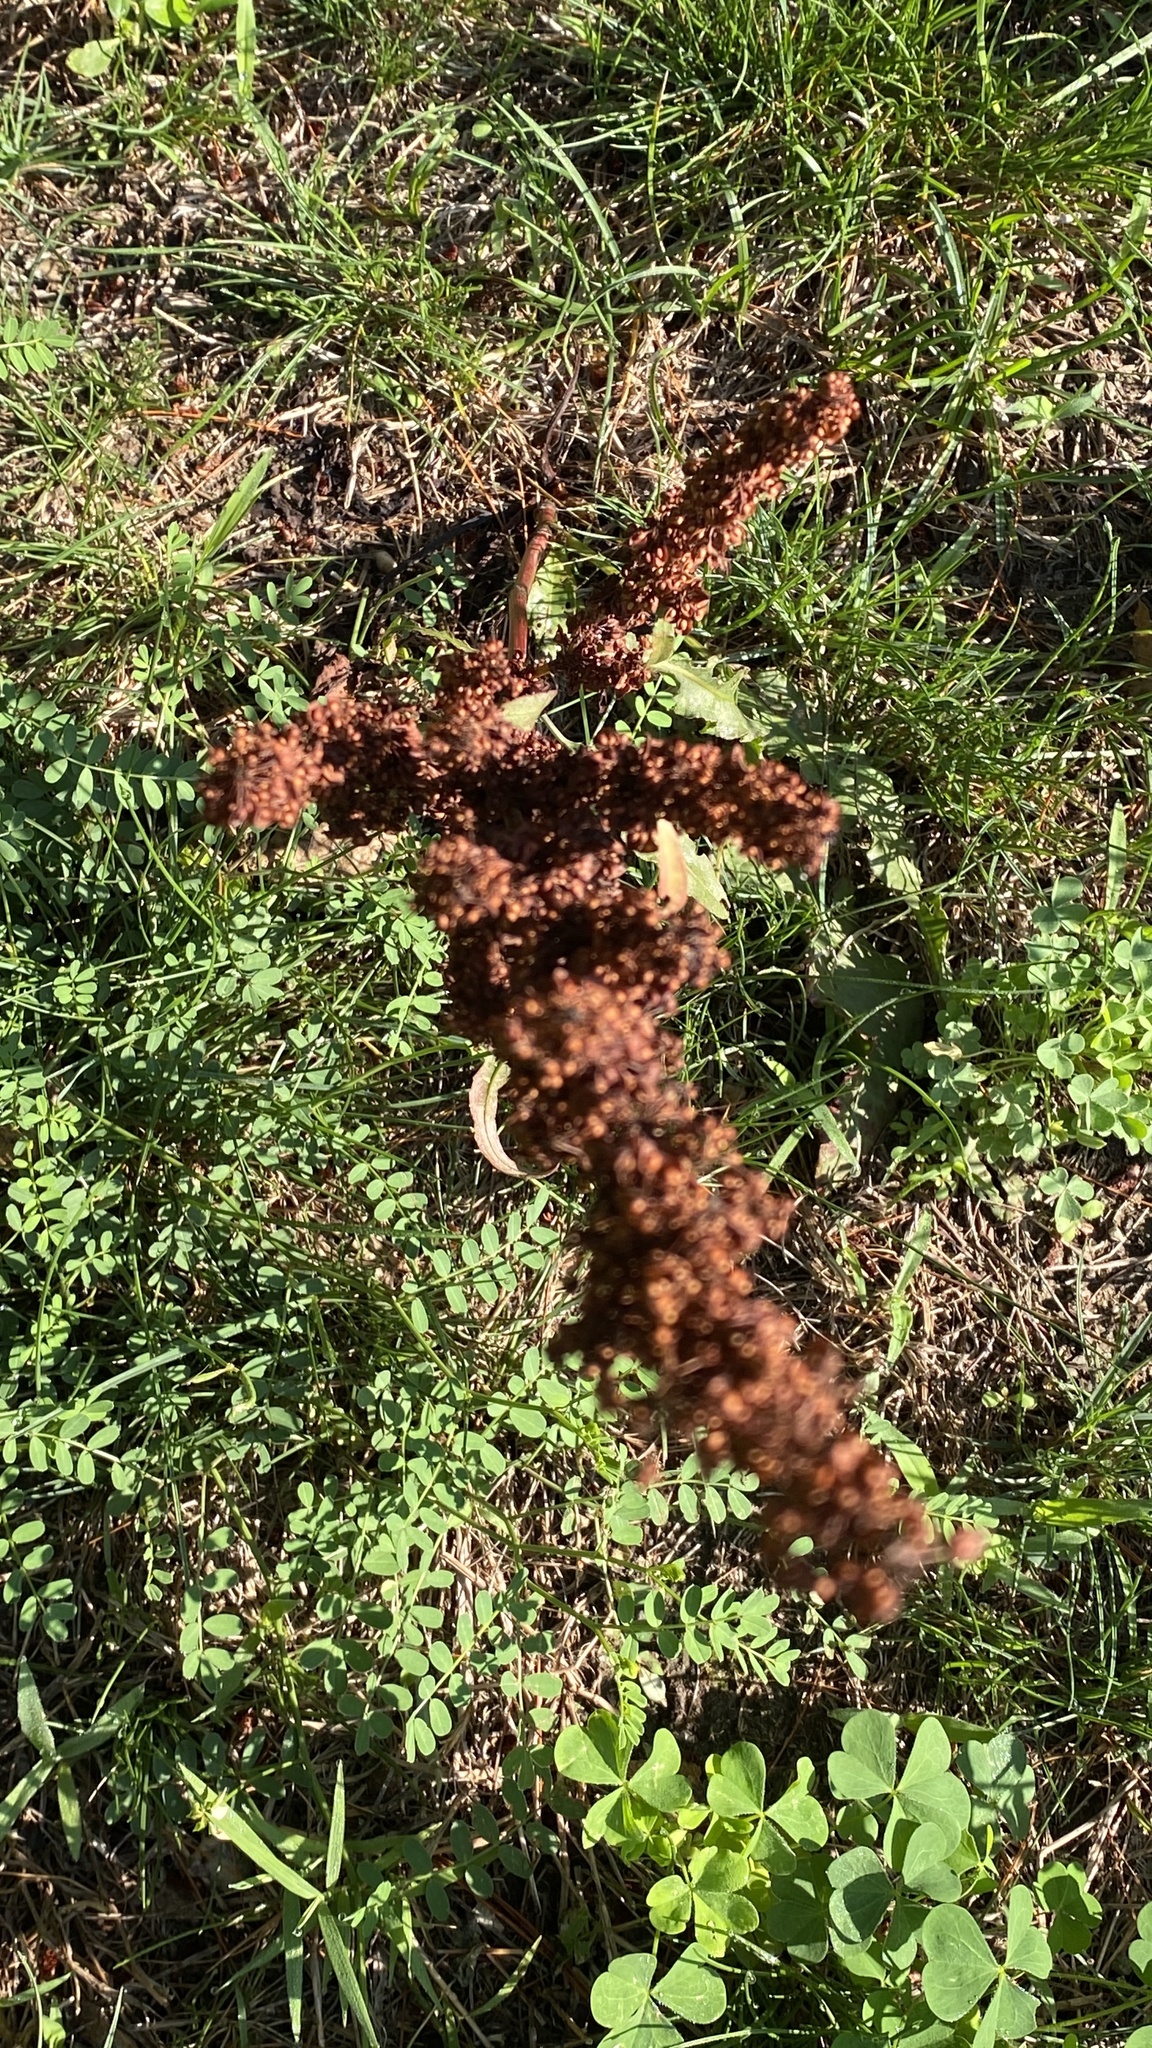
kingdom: Plantae
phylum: Tracheophyta
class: Magnoliopsida
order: Caryophyllales
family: Polygonaceae
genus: Rumex
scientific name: Rumex crispus
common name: Curled dock
